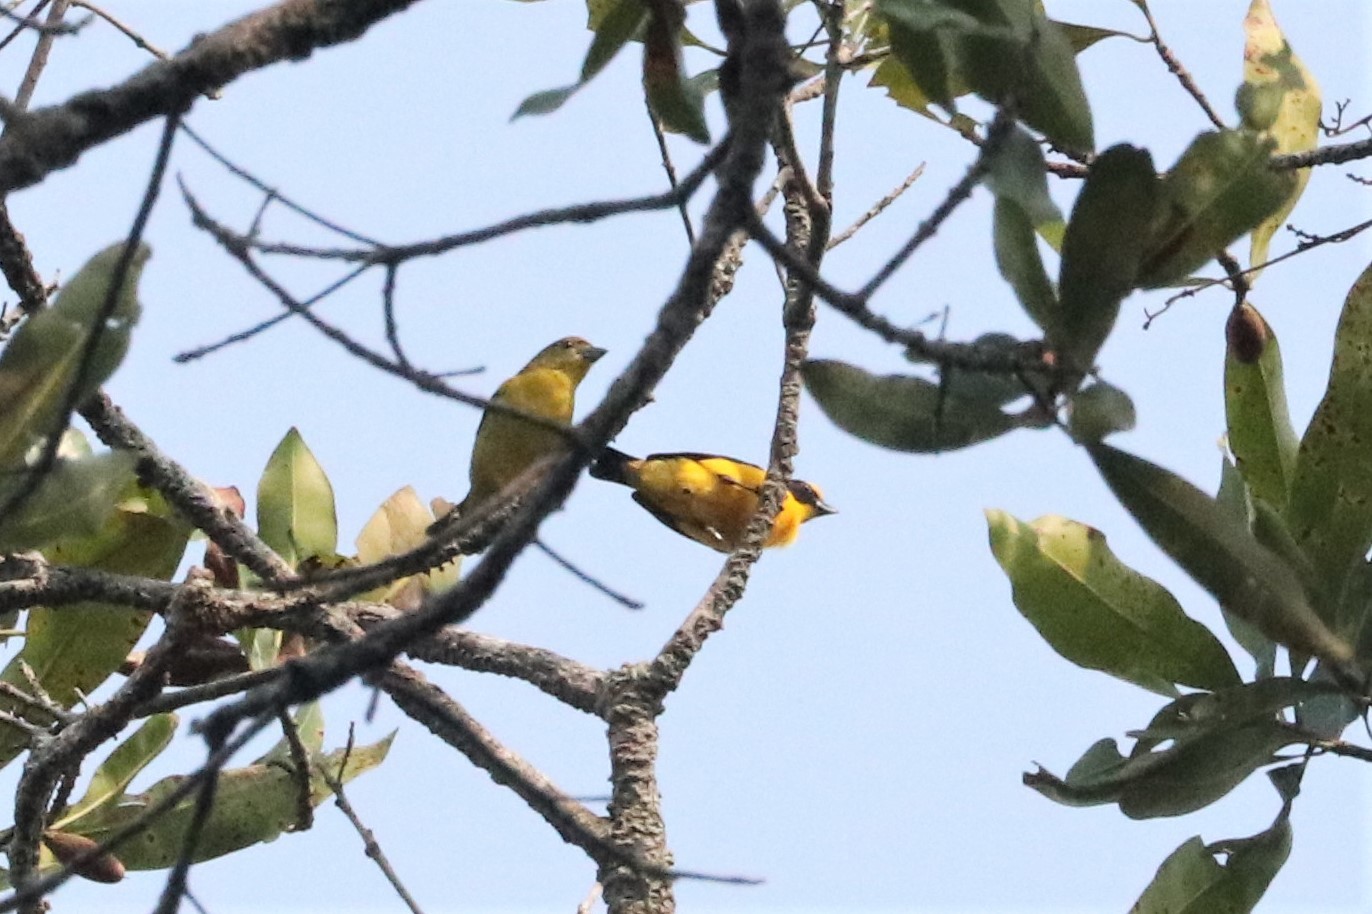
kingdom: Animalia
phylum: Chordata
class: Aves
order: Passeriformes
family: Fringillidae
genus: Euphonia
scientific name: Euphonia laniirostris
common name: Thick-billed euphonia
